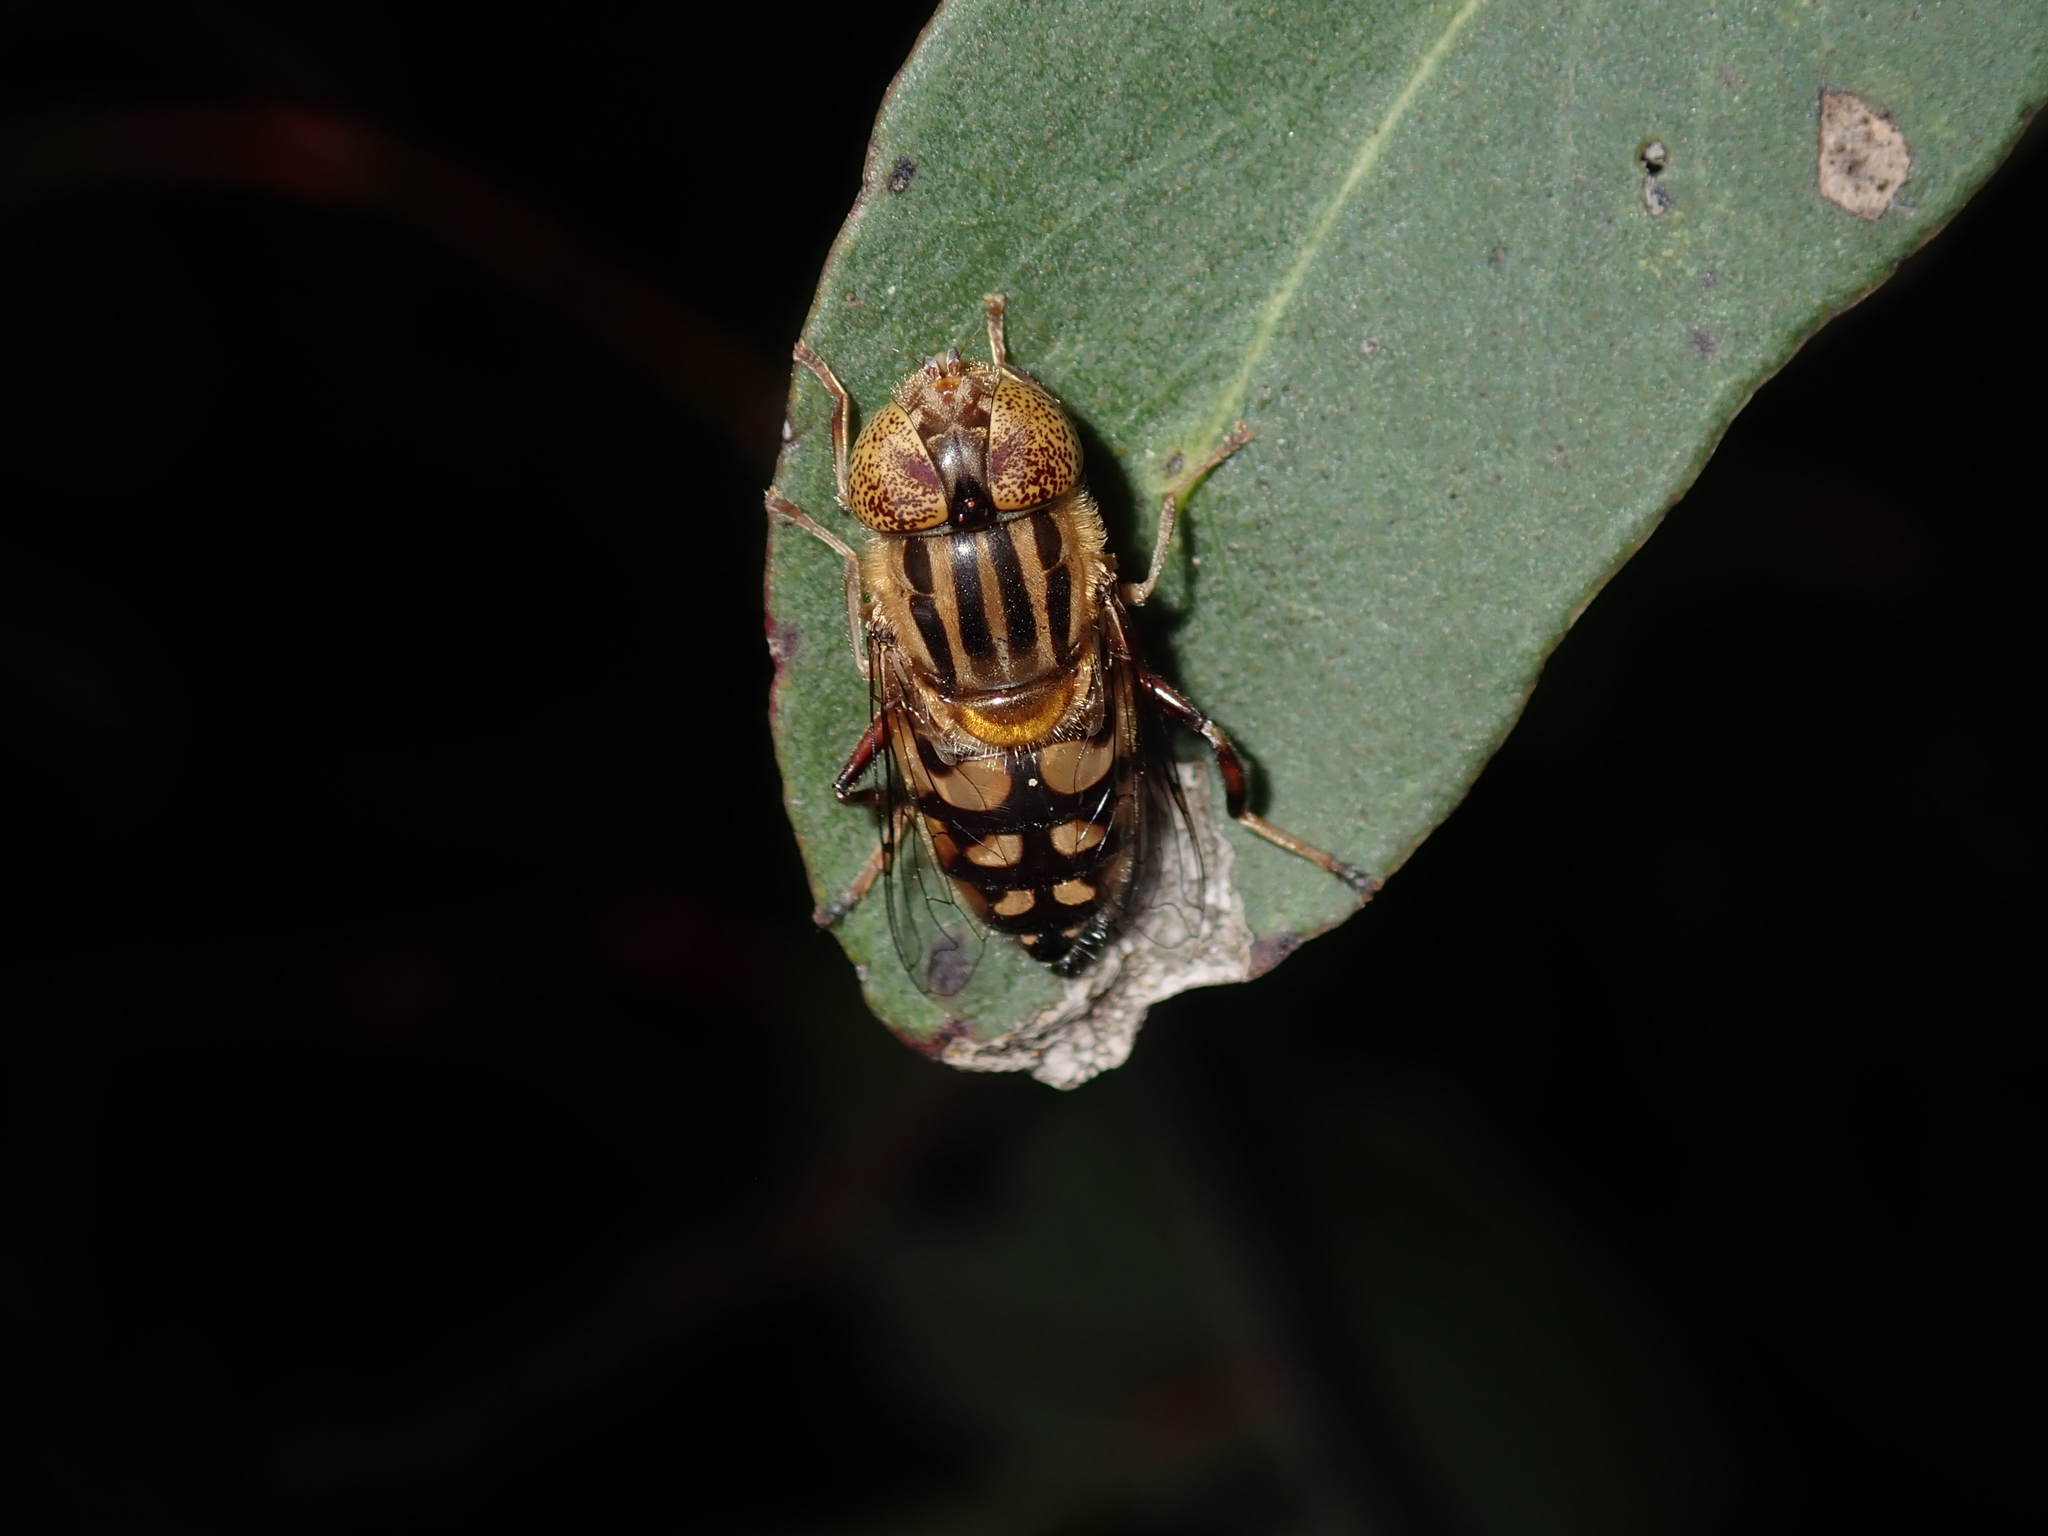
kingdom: Animalia
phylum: Arthropoda
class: Insecta
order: Diptera
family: Syrphidae
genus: Eristalinus
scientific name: Eristalinus punctulatus
